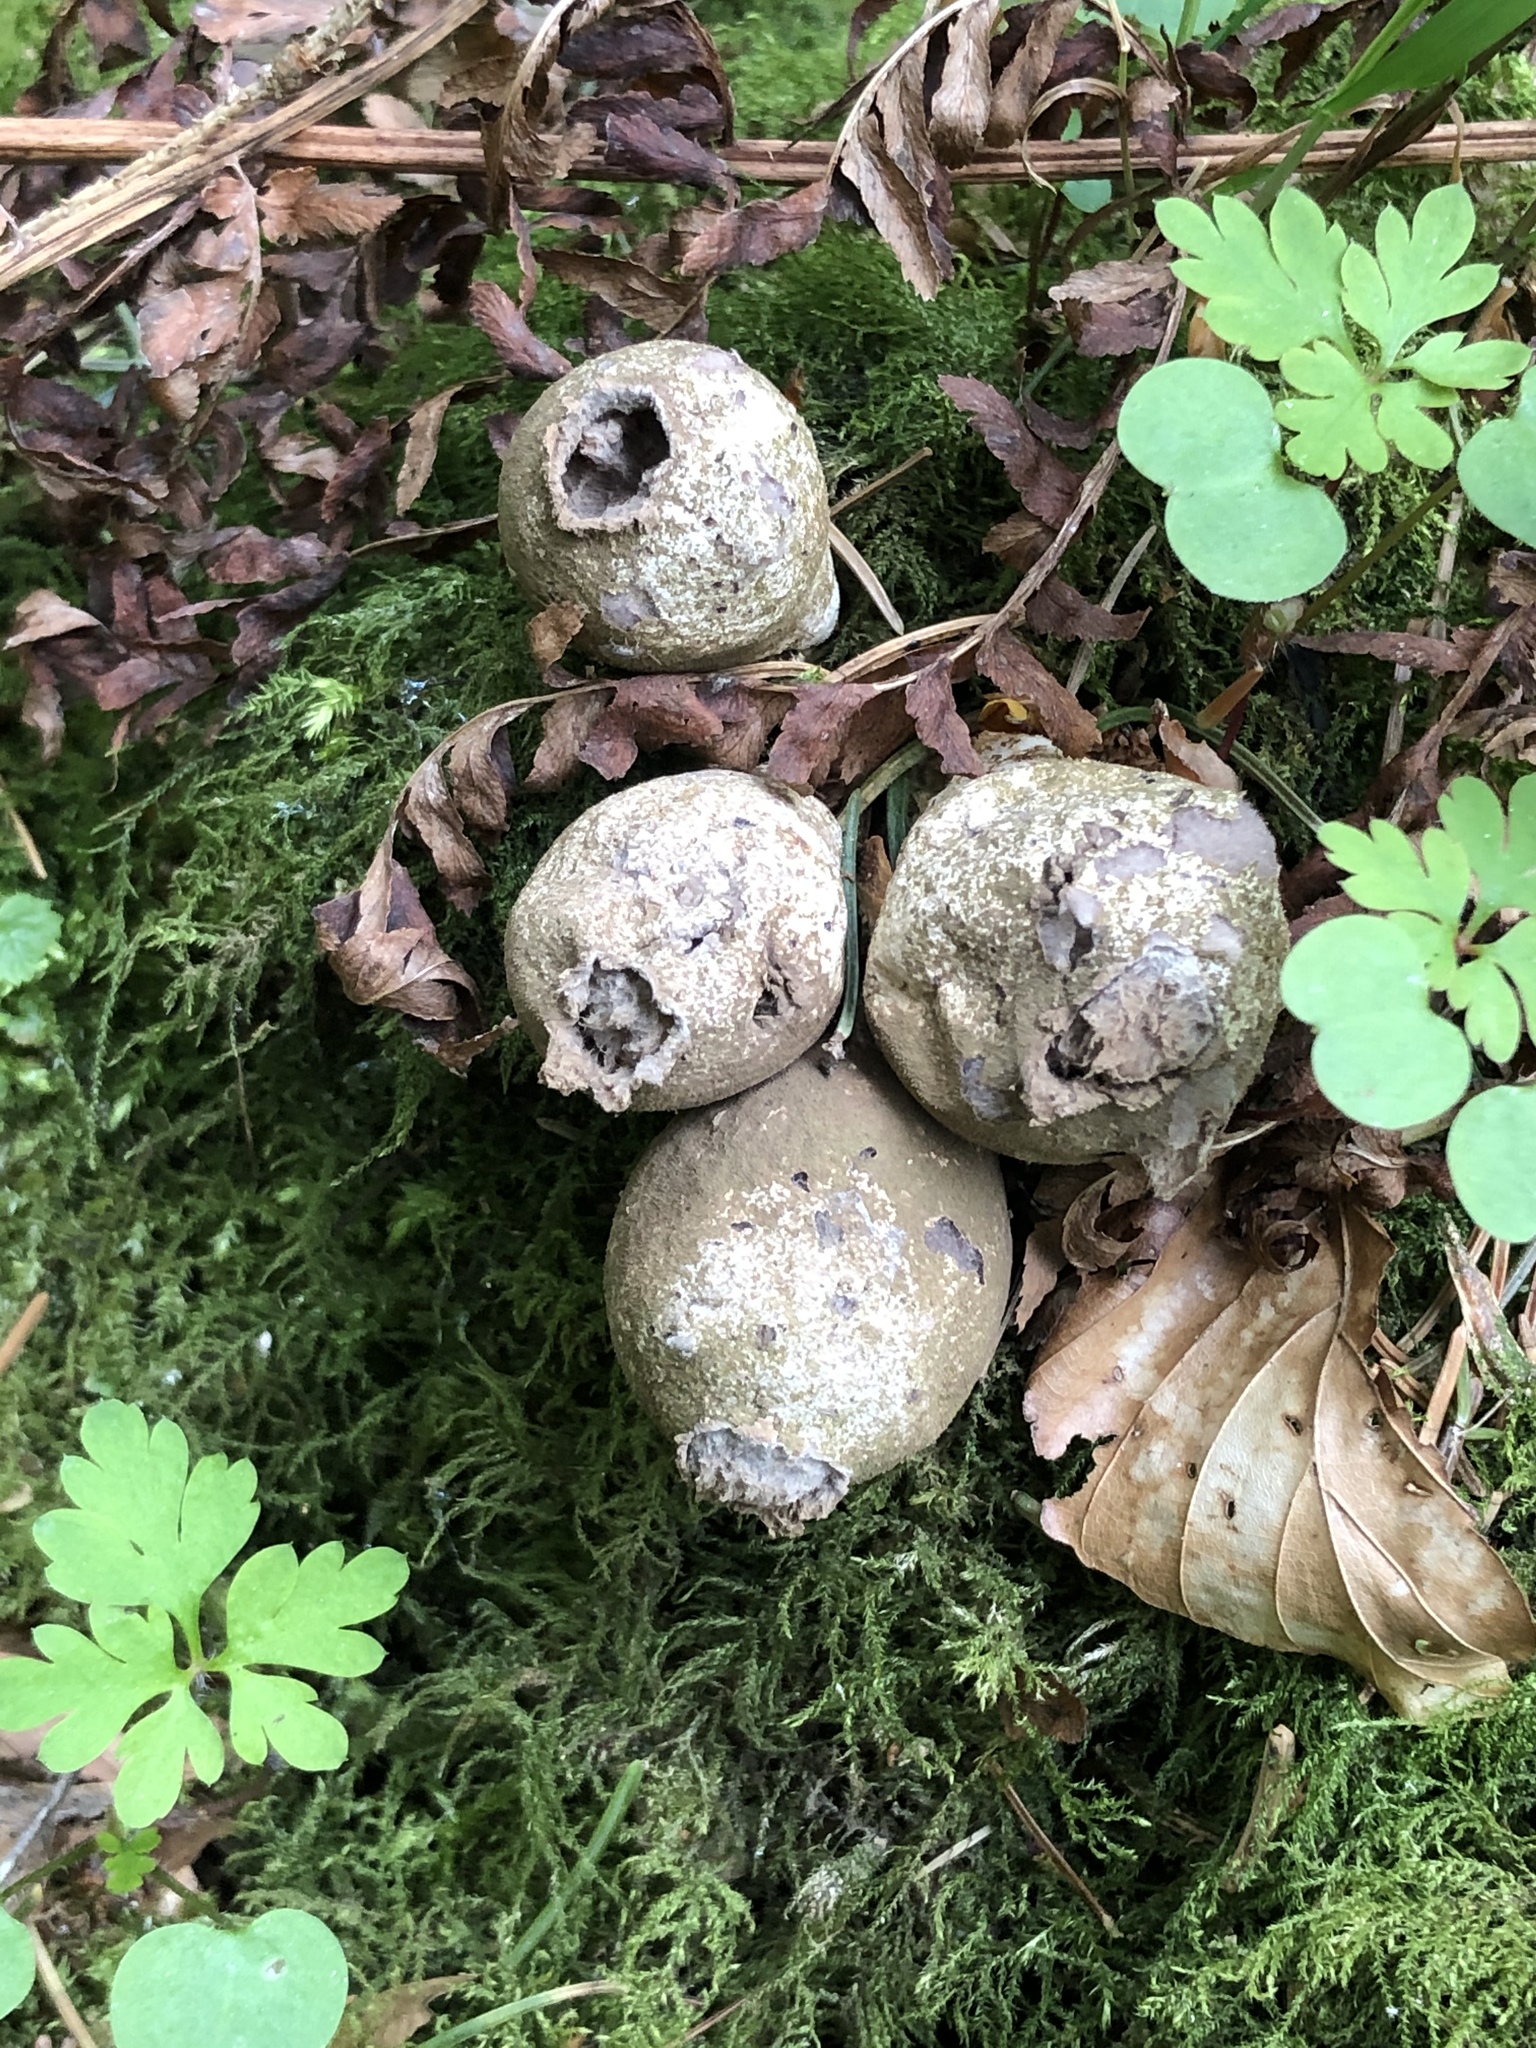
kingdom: Fungi
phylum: Basidiomycota
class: Agaricomycetes
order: Agaricales
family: Lycoperdaceae
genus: Apioperdon
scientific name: Apioperdon pyriforme
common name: Pear-shaped puffball
